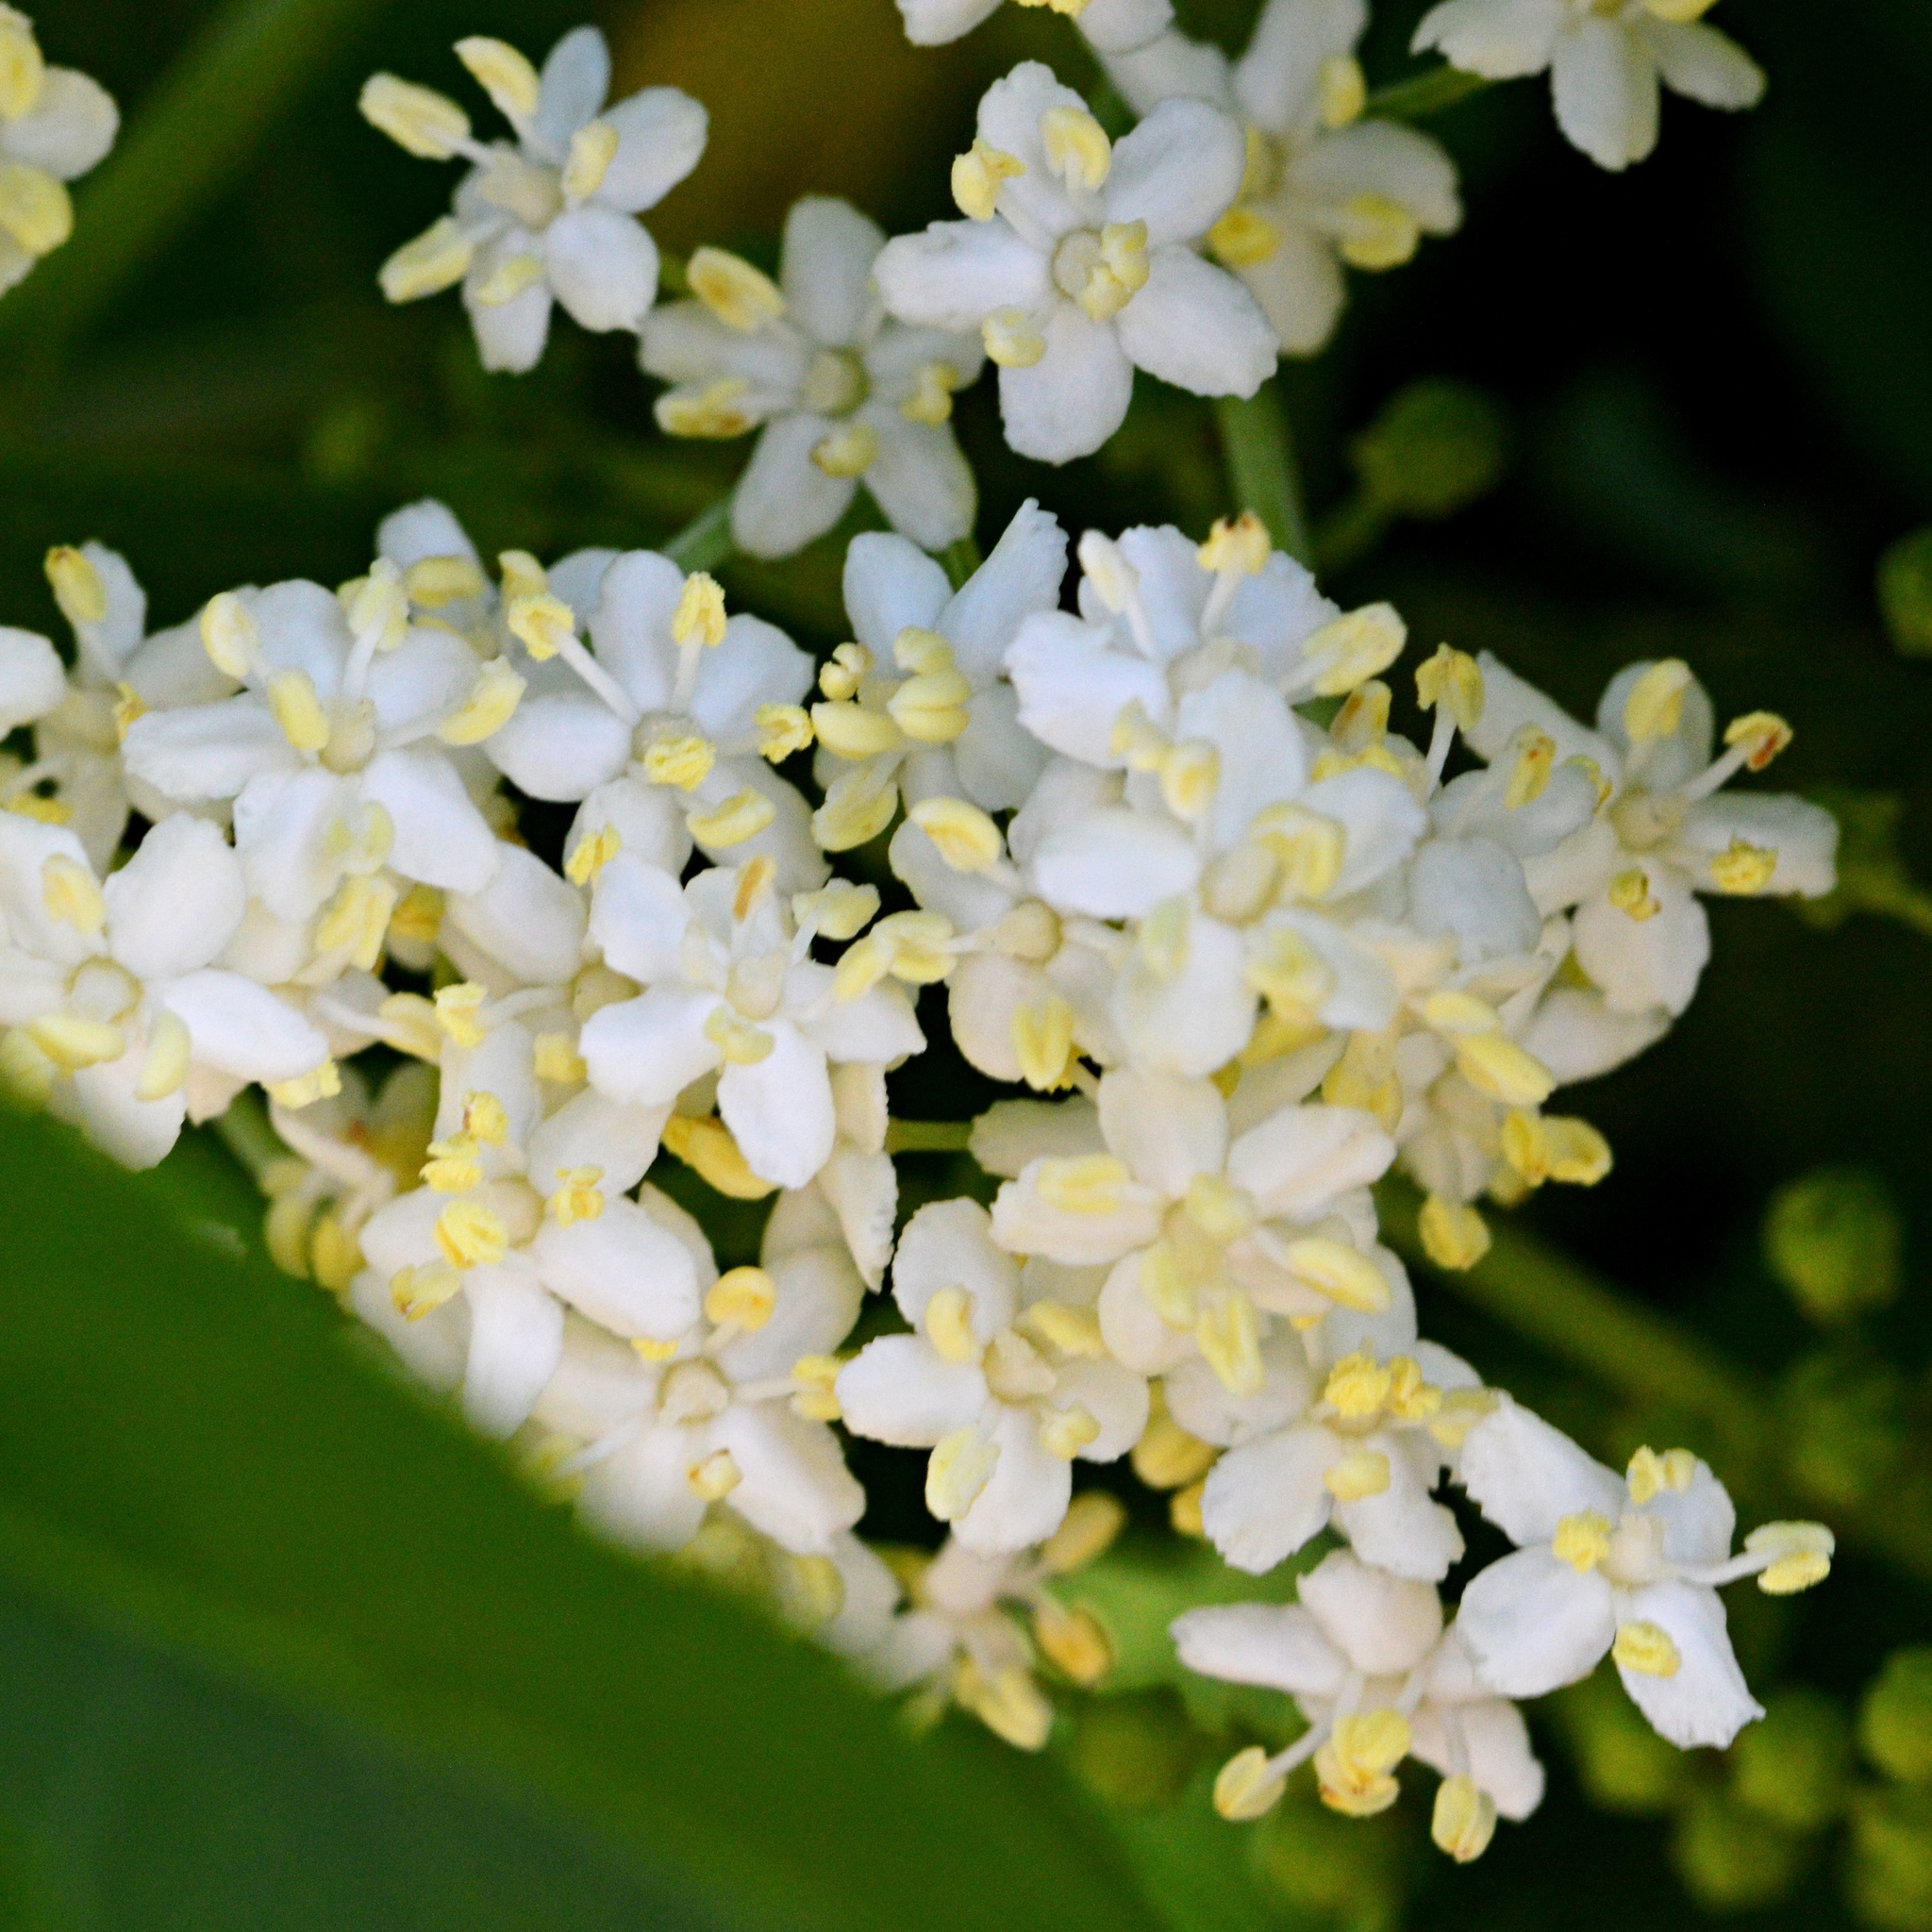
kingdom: Plantae
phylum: Tracheophyta
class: Magnoliopsida
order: Dipsacales
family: Viburnaceae
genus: Sambucus
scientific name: Sambucus nigra
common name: Elder
